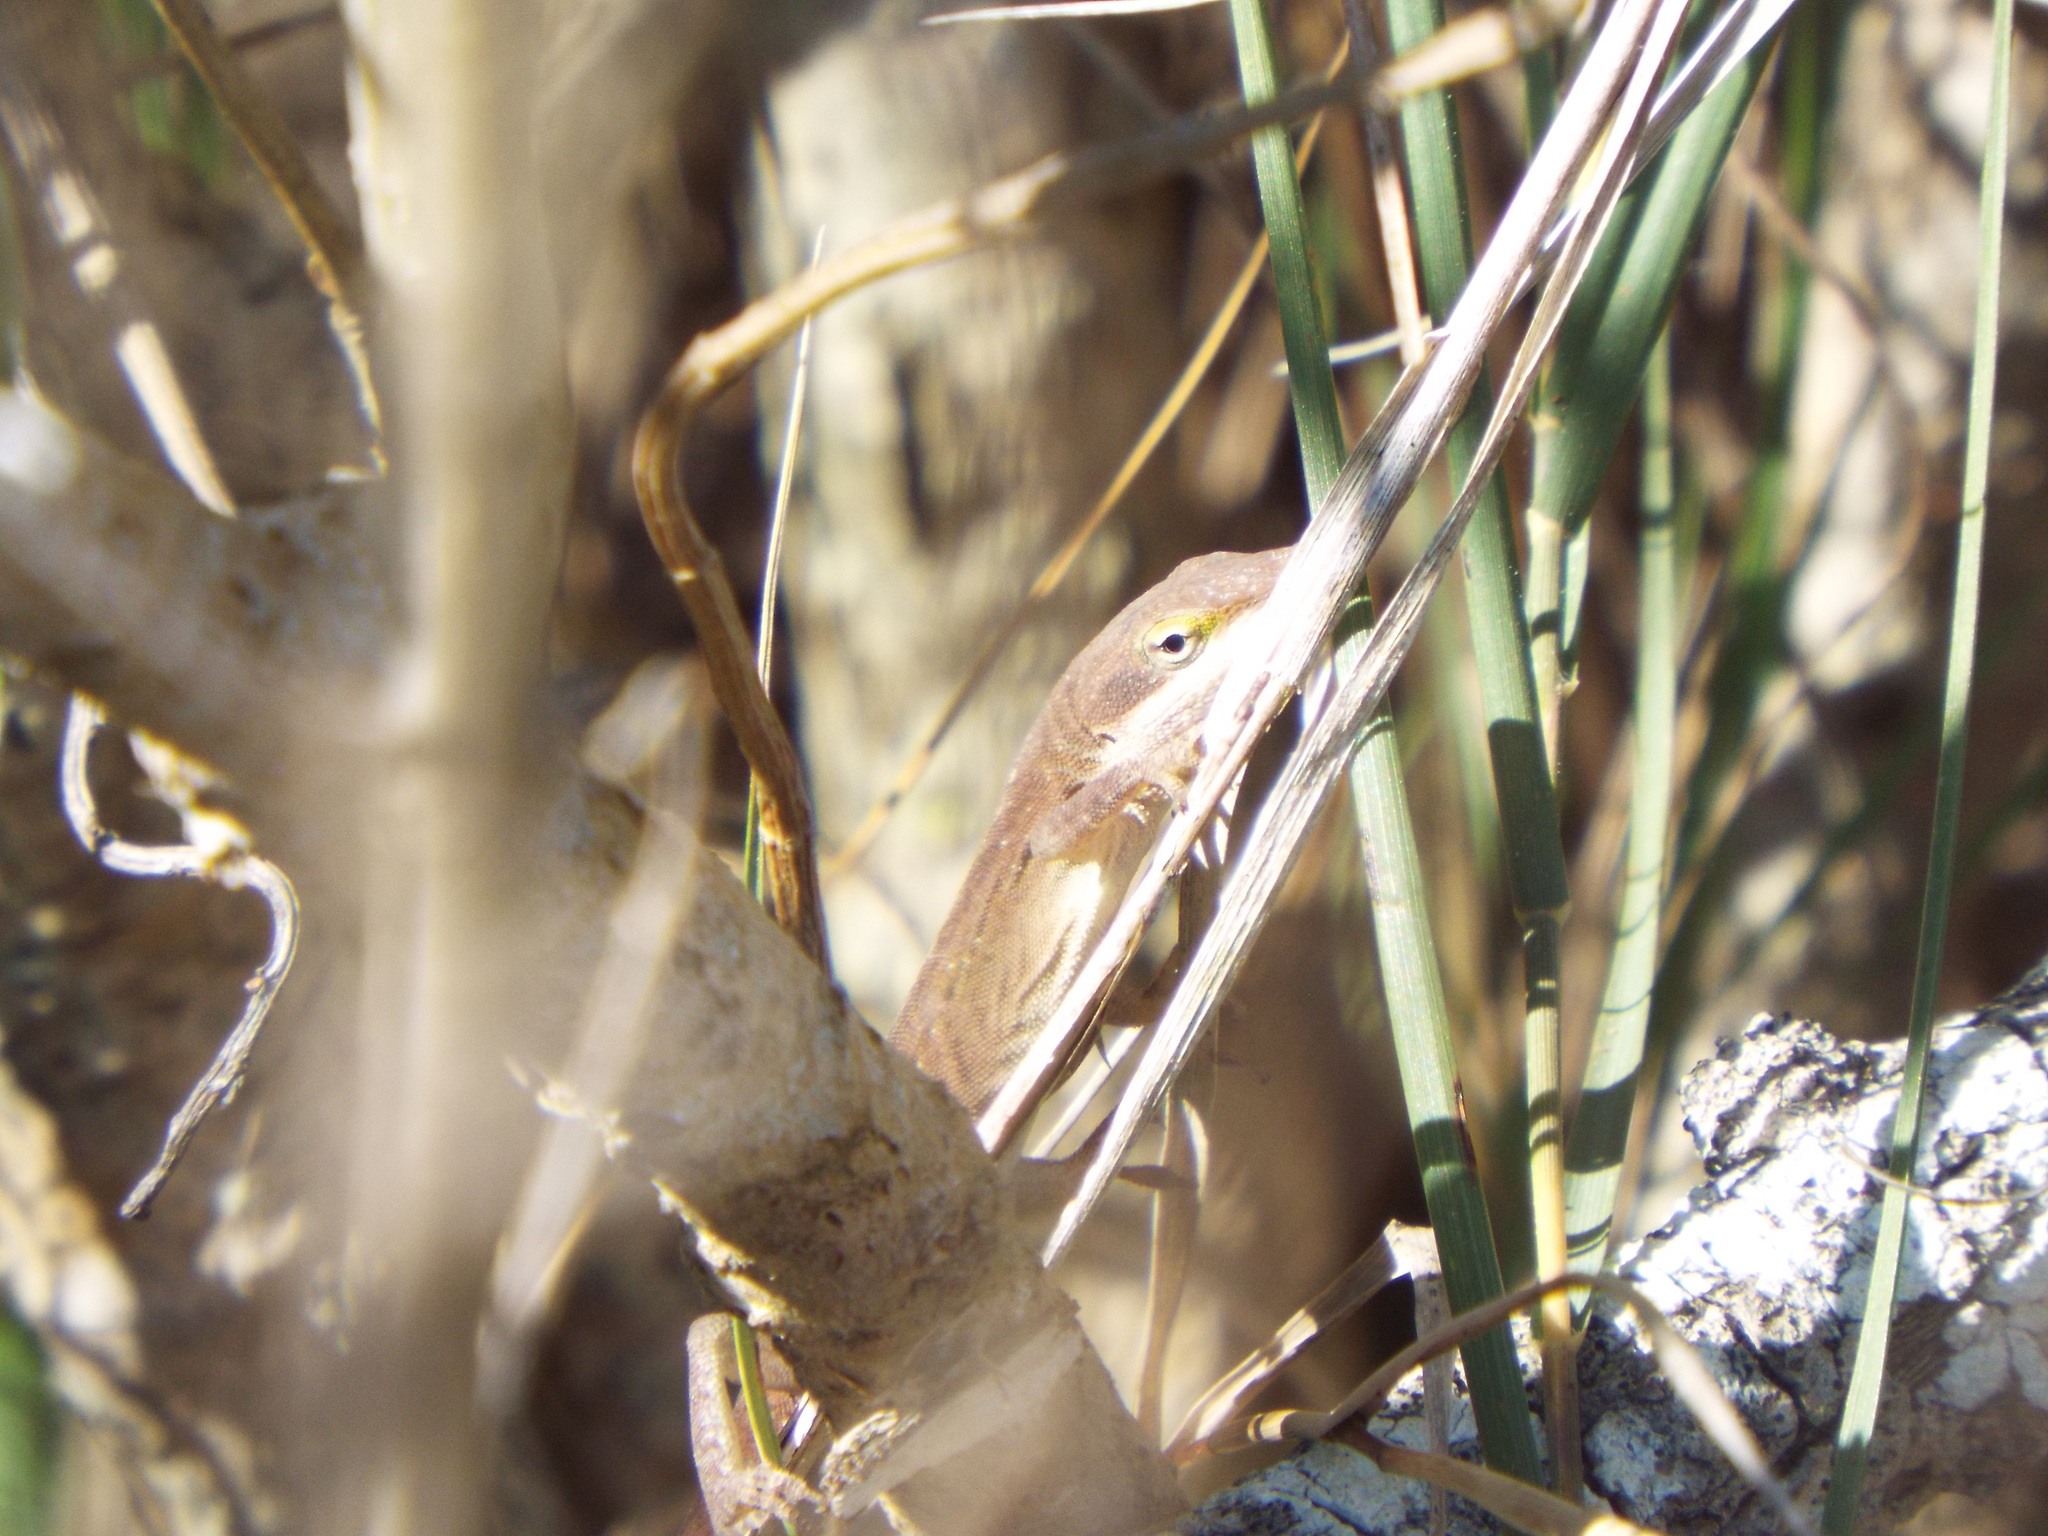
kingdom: Animalia
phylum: Chordata
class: Squamata
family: Dactyloidae
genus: Anolis
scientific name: Anolis carolinensis
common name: Green anole
